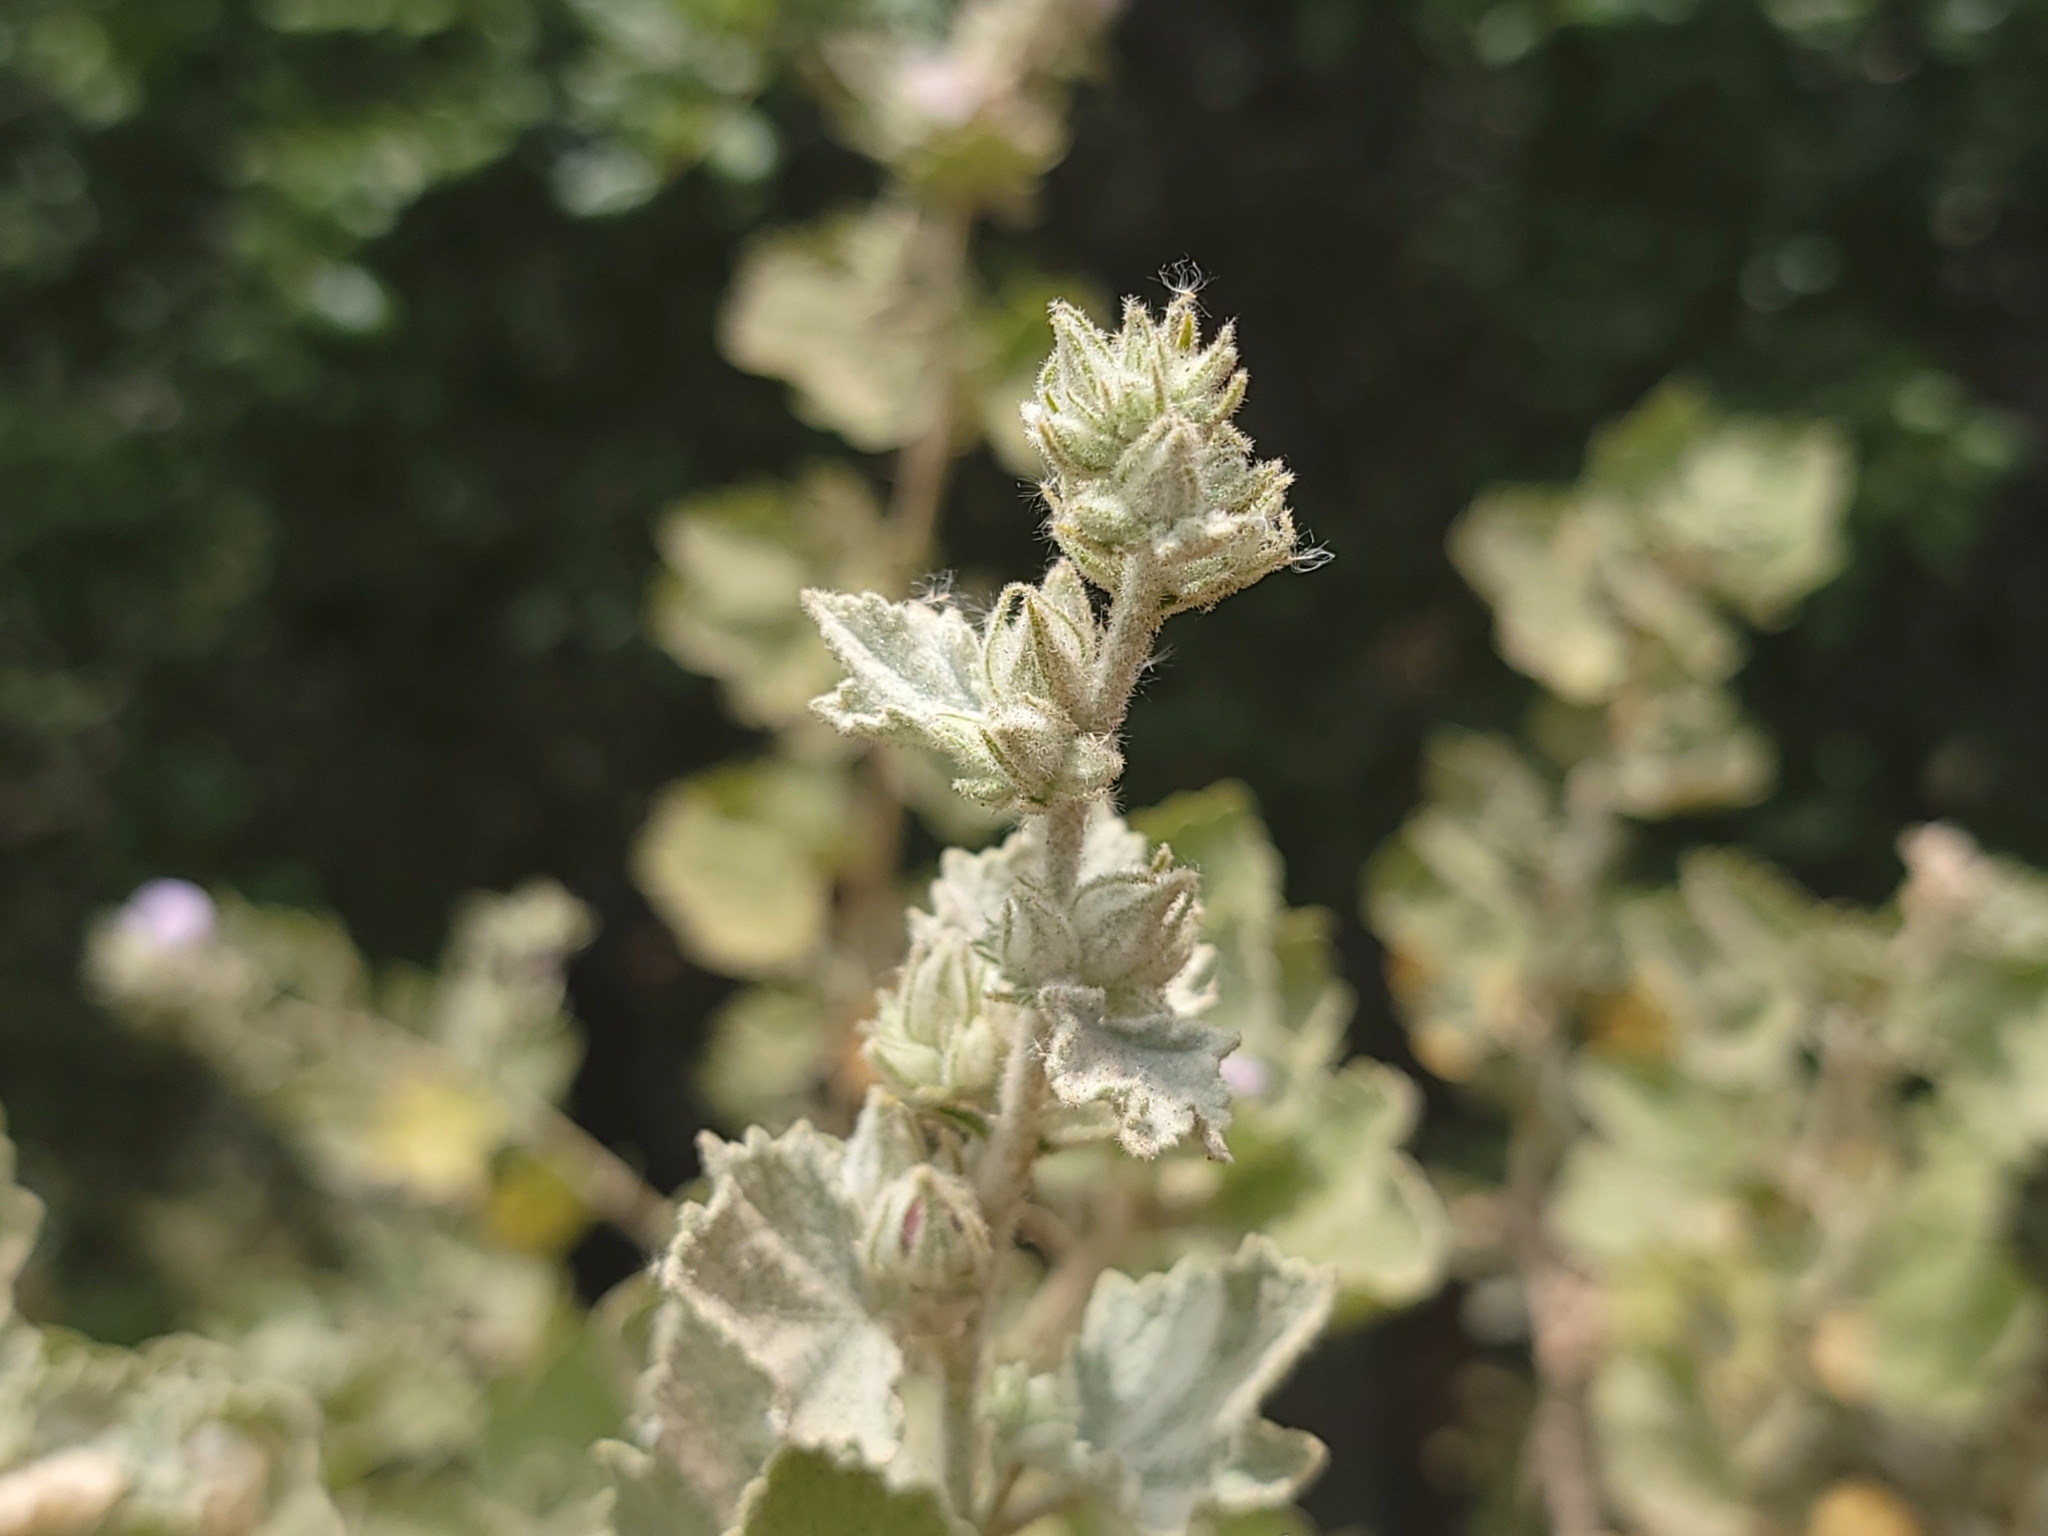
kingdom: Plantae
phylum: Tracheophyta
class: Magnoliopsida
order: Malvales
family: Malvaceae
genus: Malacothamnus
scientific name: Malacothamnus marrubioides
